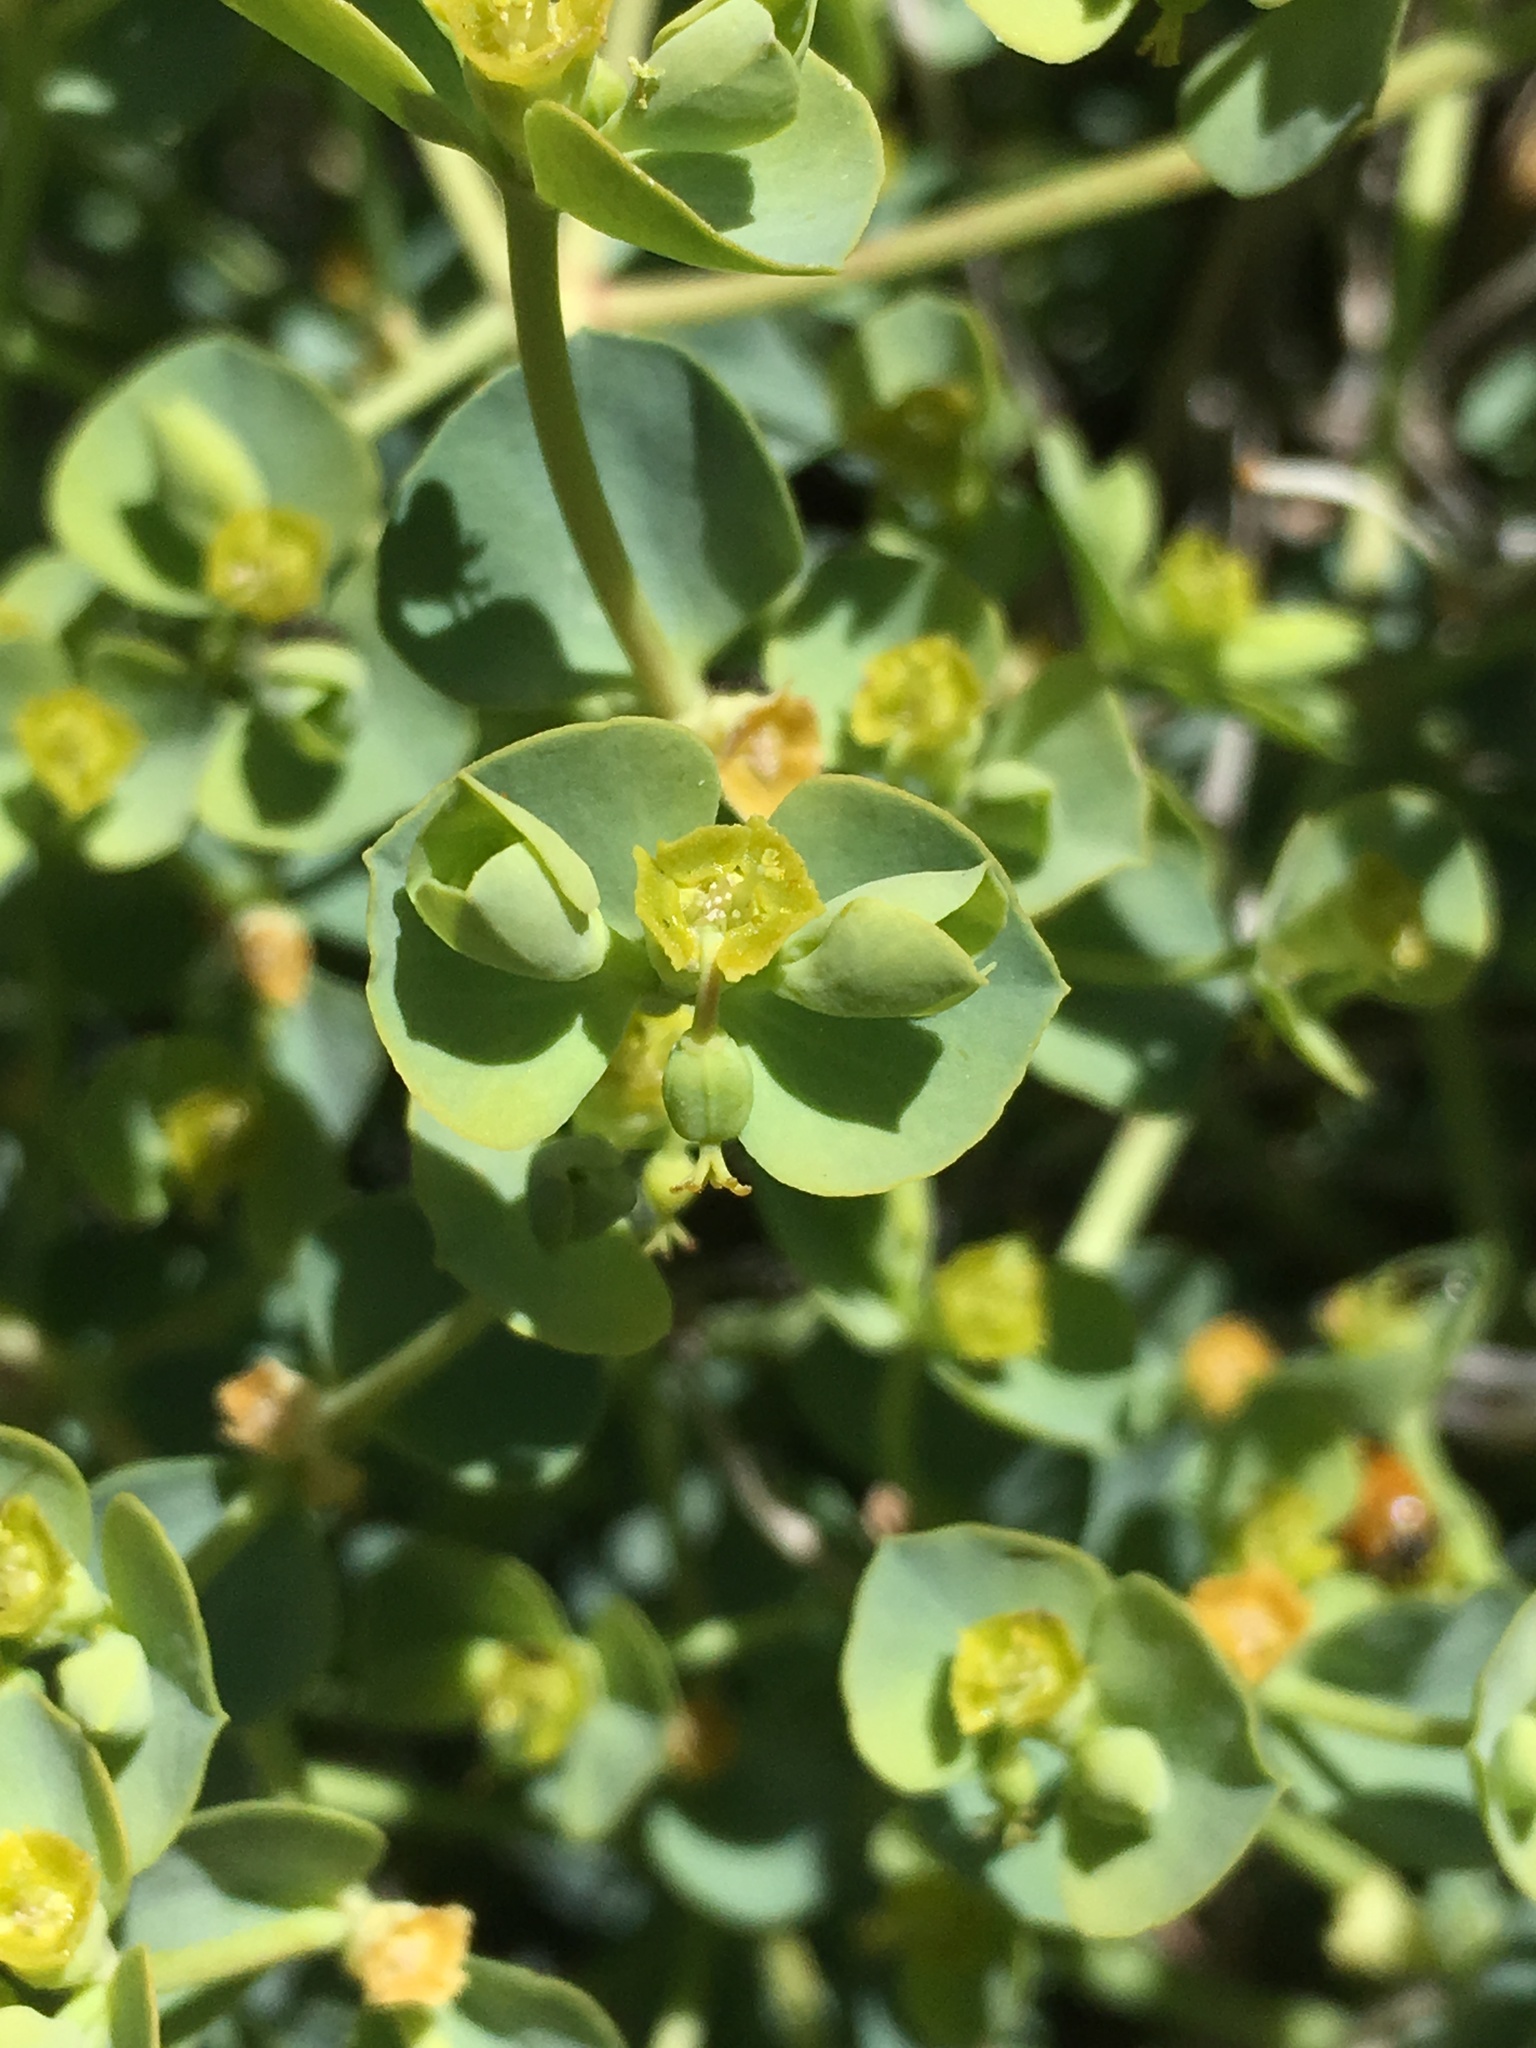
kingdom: Plantae
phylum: Tracheophyta
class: Magnoliopsida
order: Malpighiales
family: Euphorbiaceae
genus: Euphorbia
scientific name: Euphorbia lurida
